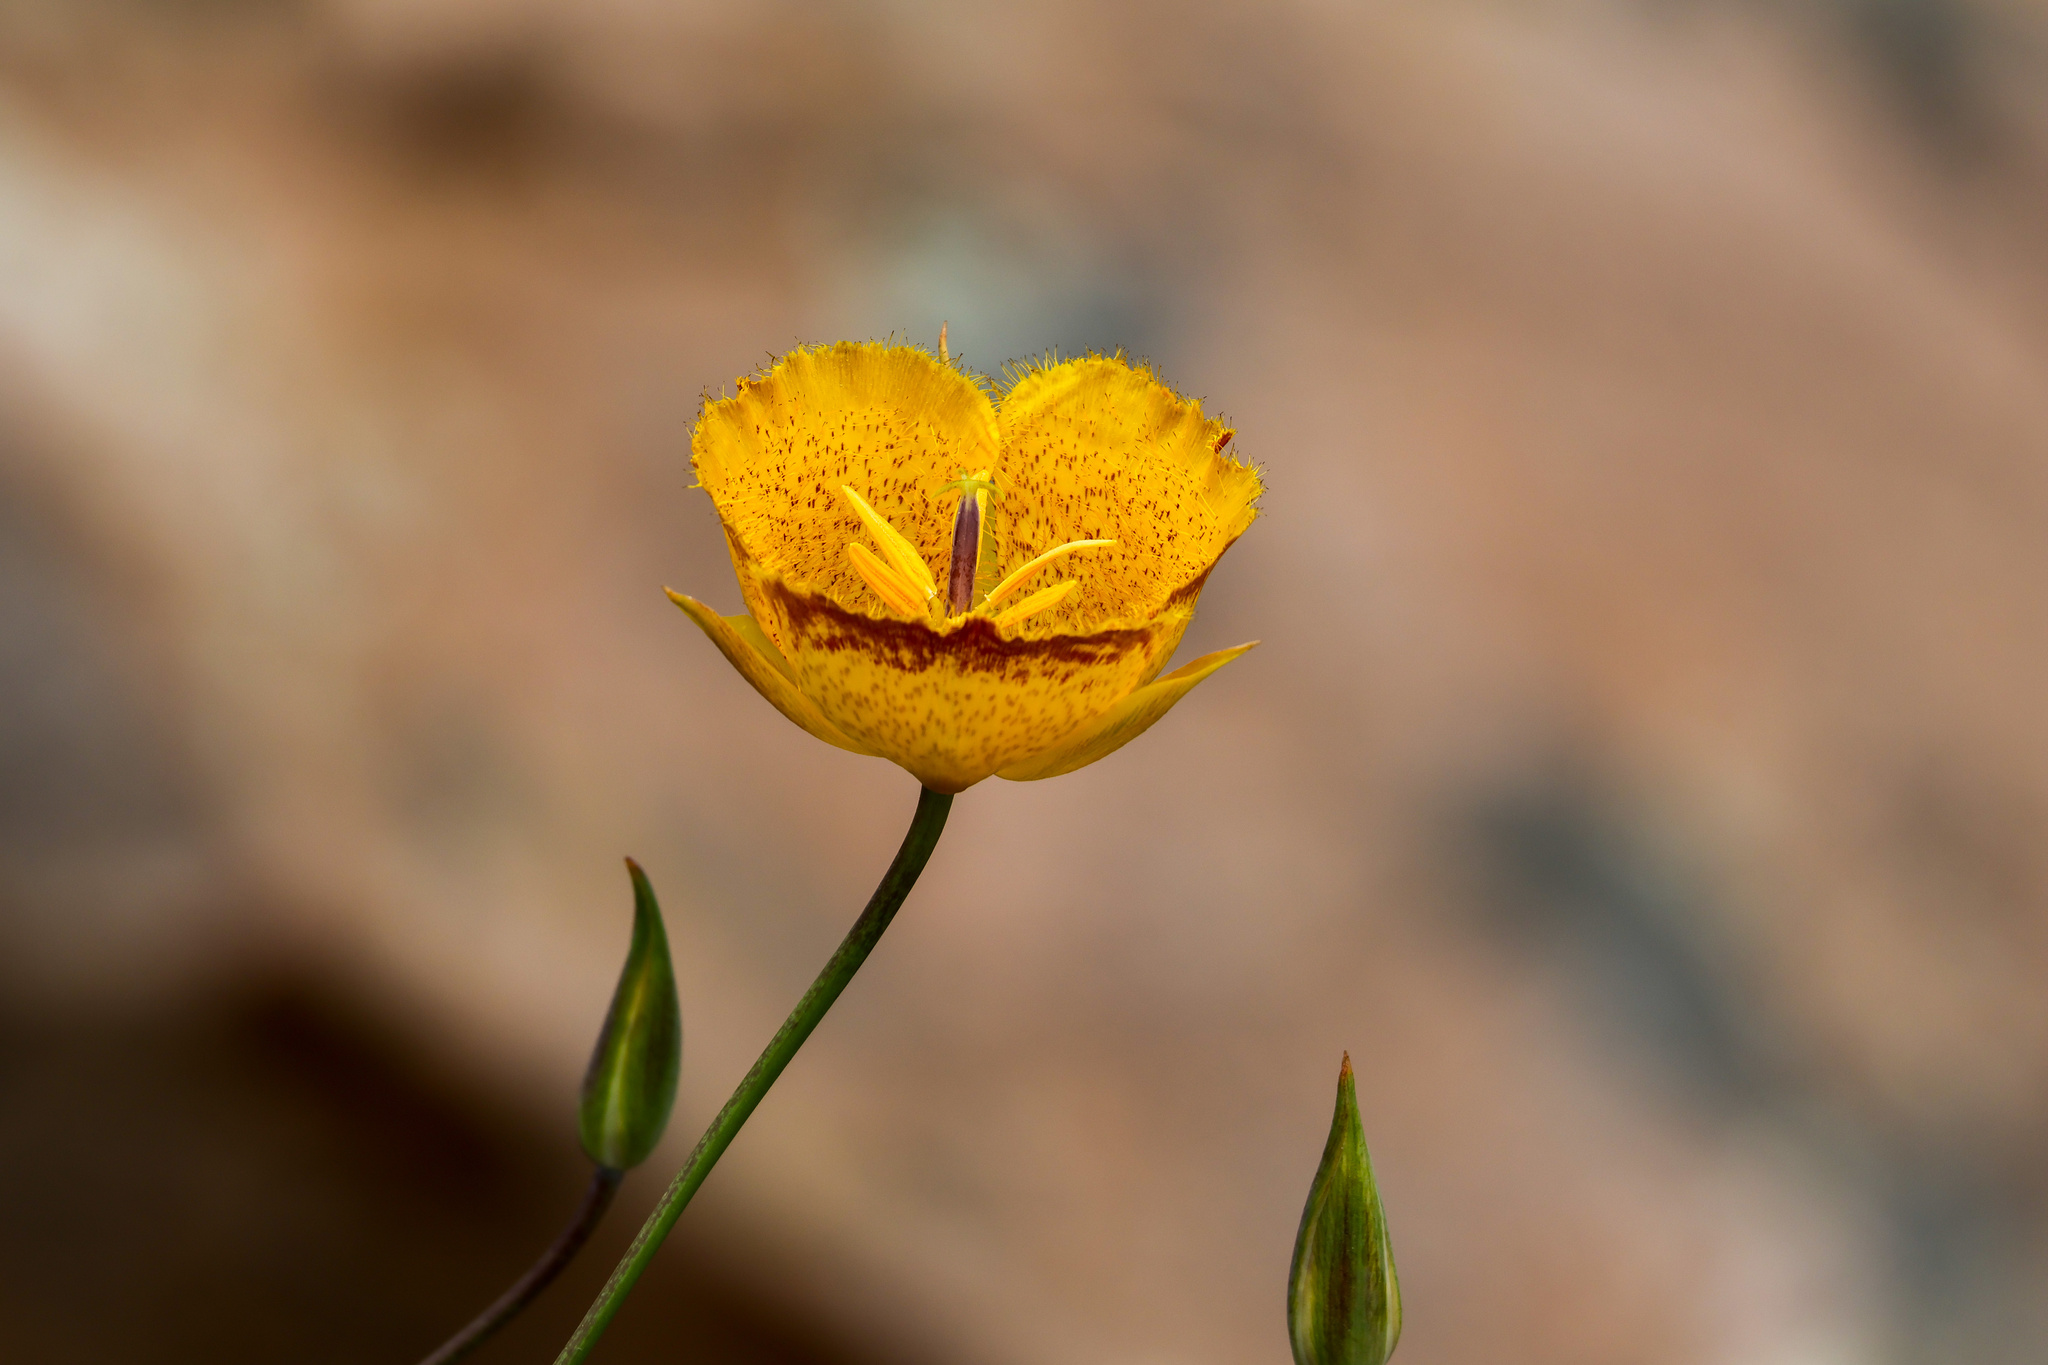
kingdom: Plantae
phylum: Tracheophyta
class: Liliopsida
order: Liliales
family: Liliaceae
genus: Calochortus
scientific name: Calochortus weedii
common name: Weed's mariposa-lily
